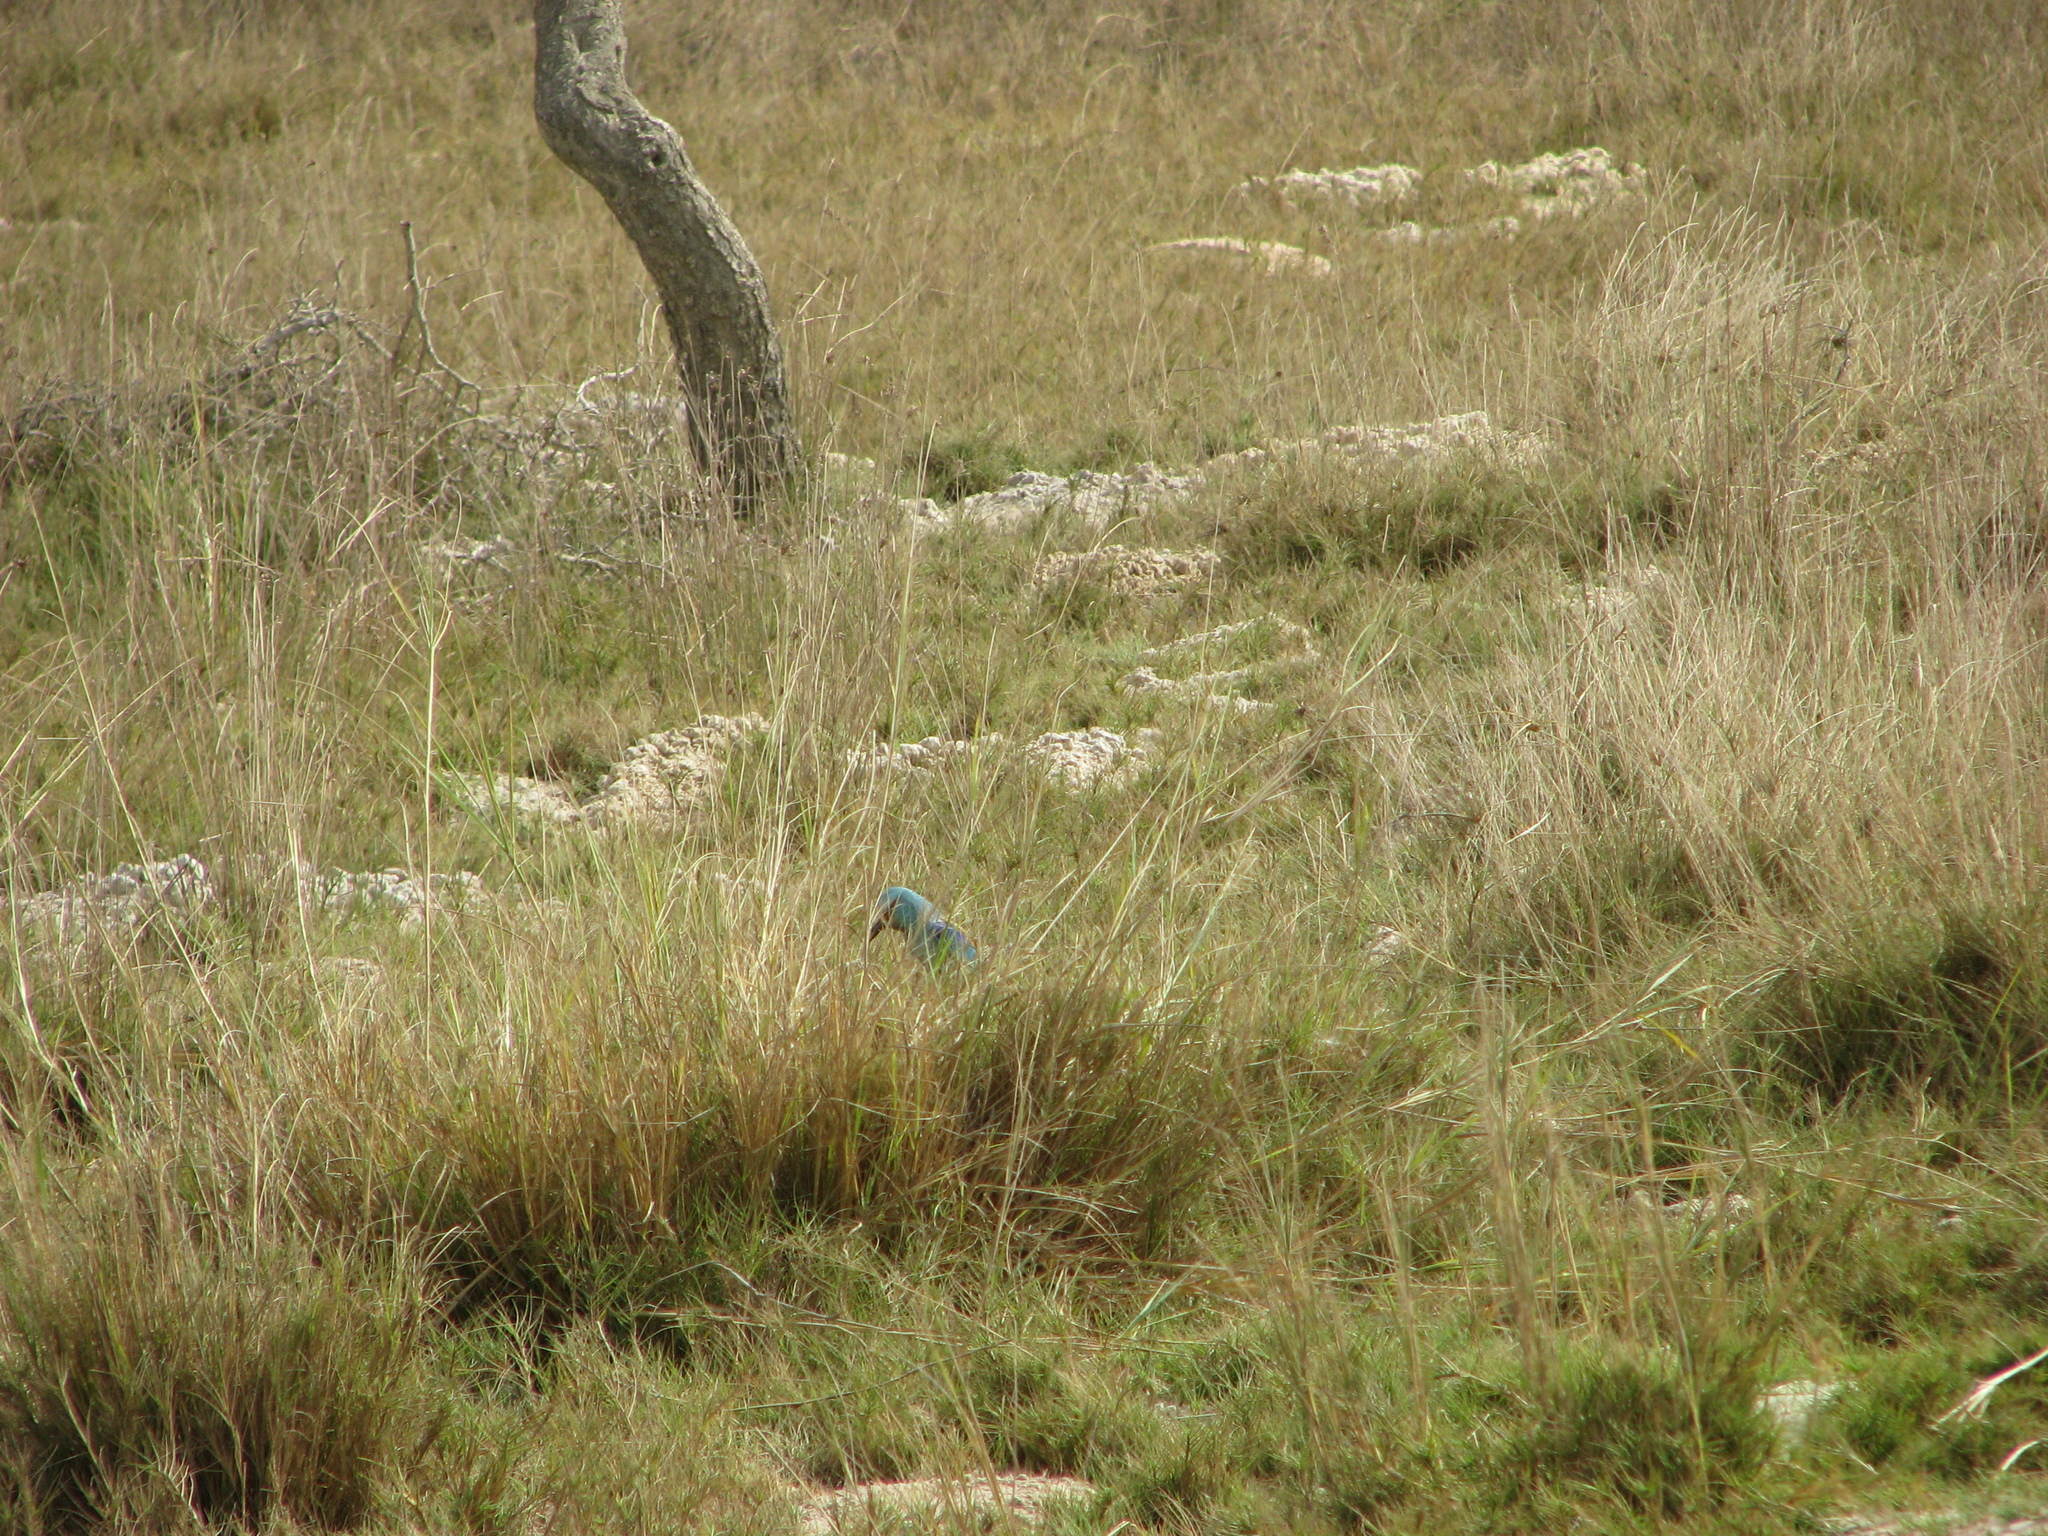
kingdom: Animalia
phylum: Chordata
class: Aves
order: Coraciiformes
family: Coraciidae
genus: Coracias
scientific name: Coracias abyssinicus
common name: Abyssinian roller
